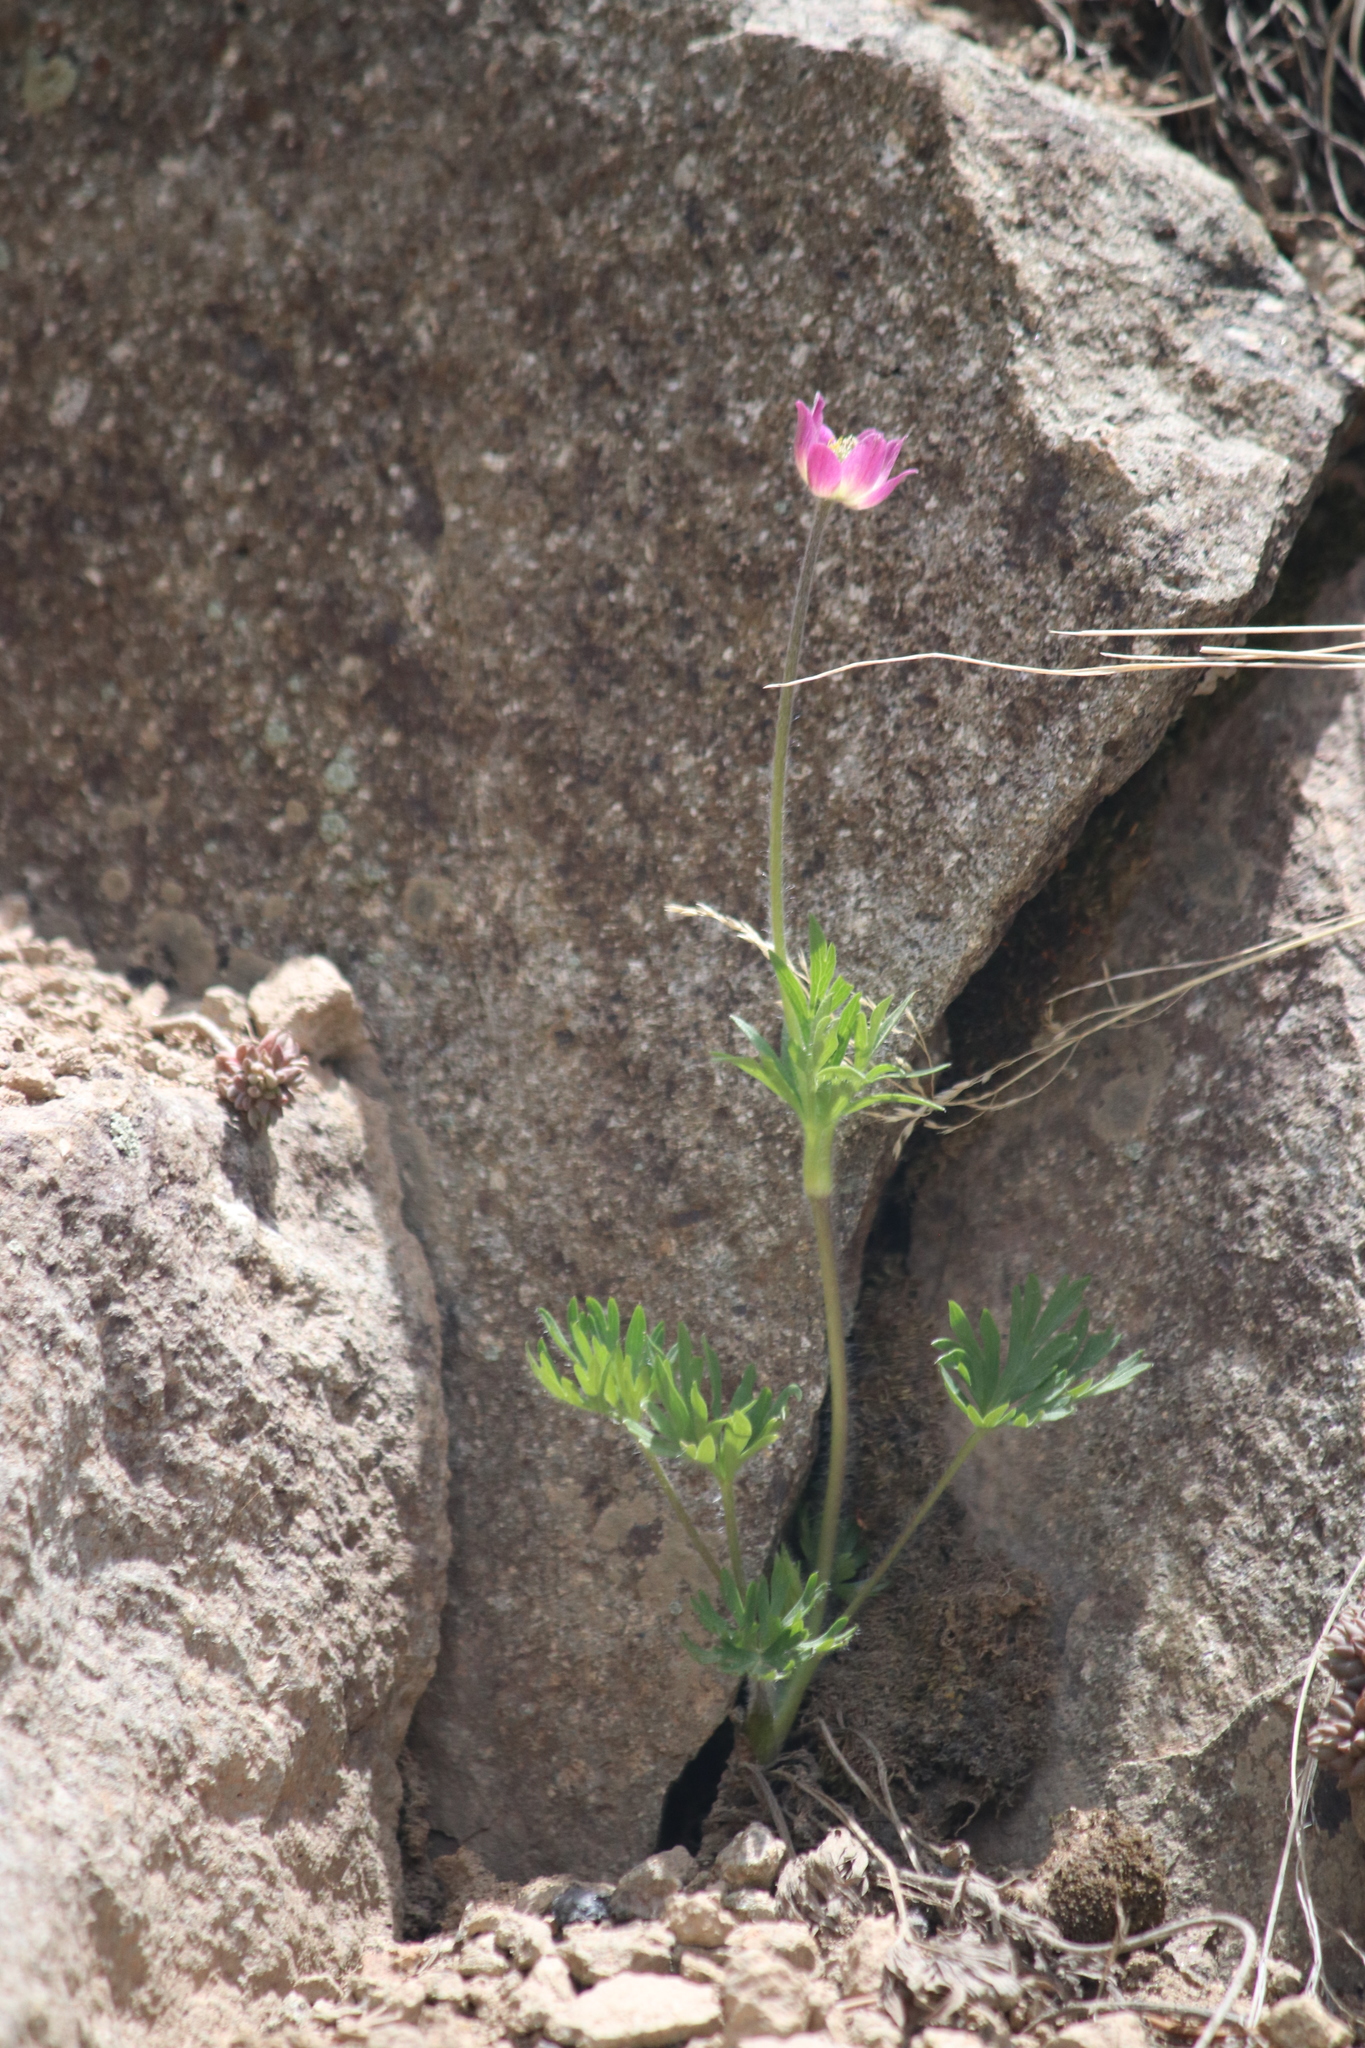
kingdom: Plantae
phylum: Tracheophyta
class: Magnoliopsida
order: Ranunculales
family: Ranunculaceae
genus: Anemone
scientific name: Anemone multifida
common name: Bird's-foot anemone
